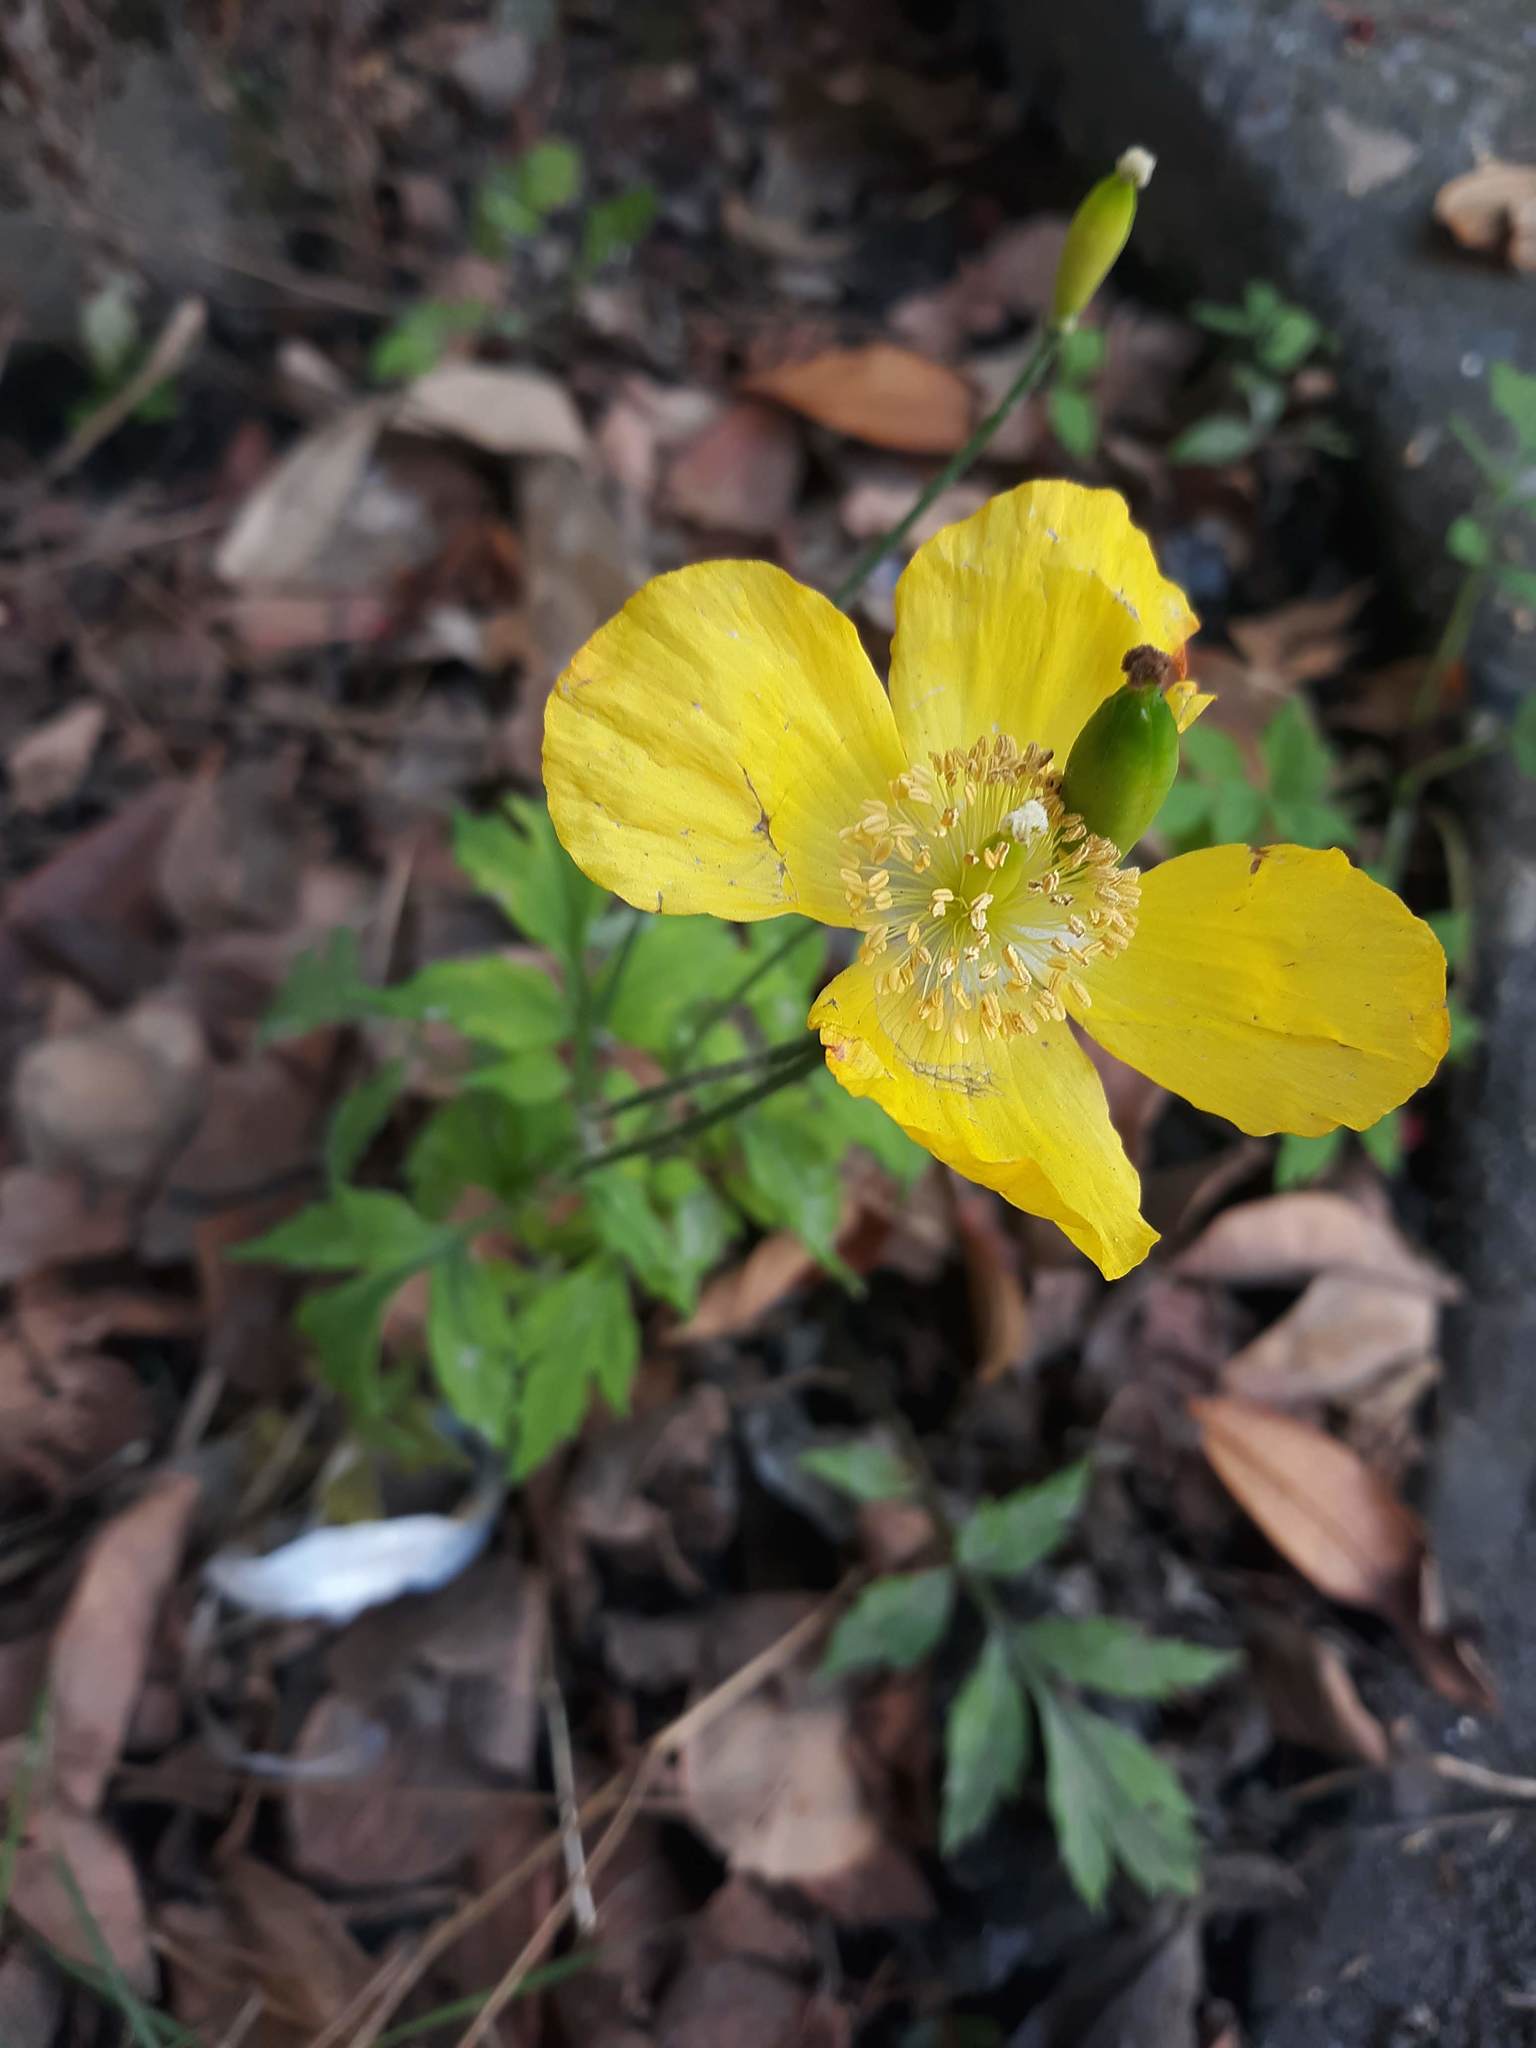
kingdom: Plantae
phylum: Tracheophyta
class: Magnoliopsida
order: Ranunculales
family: Papaveraceae
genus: Papaver
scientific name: Papaver cambricum
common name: Poppy
